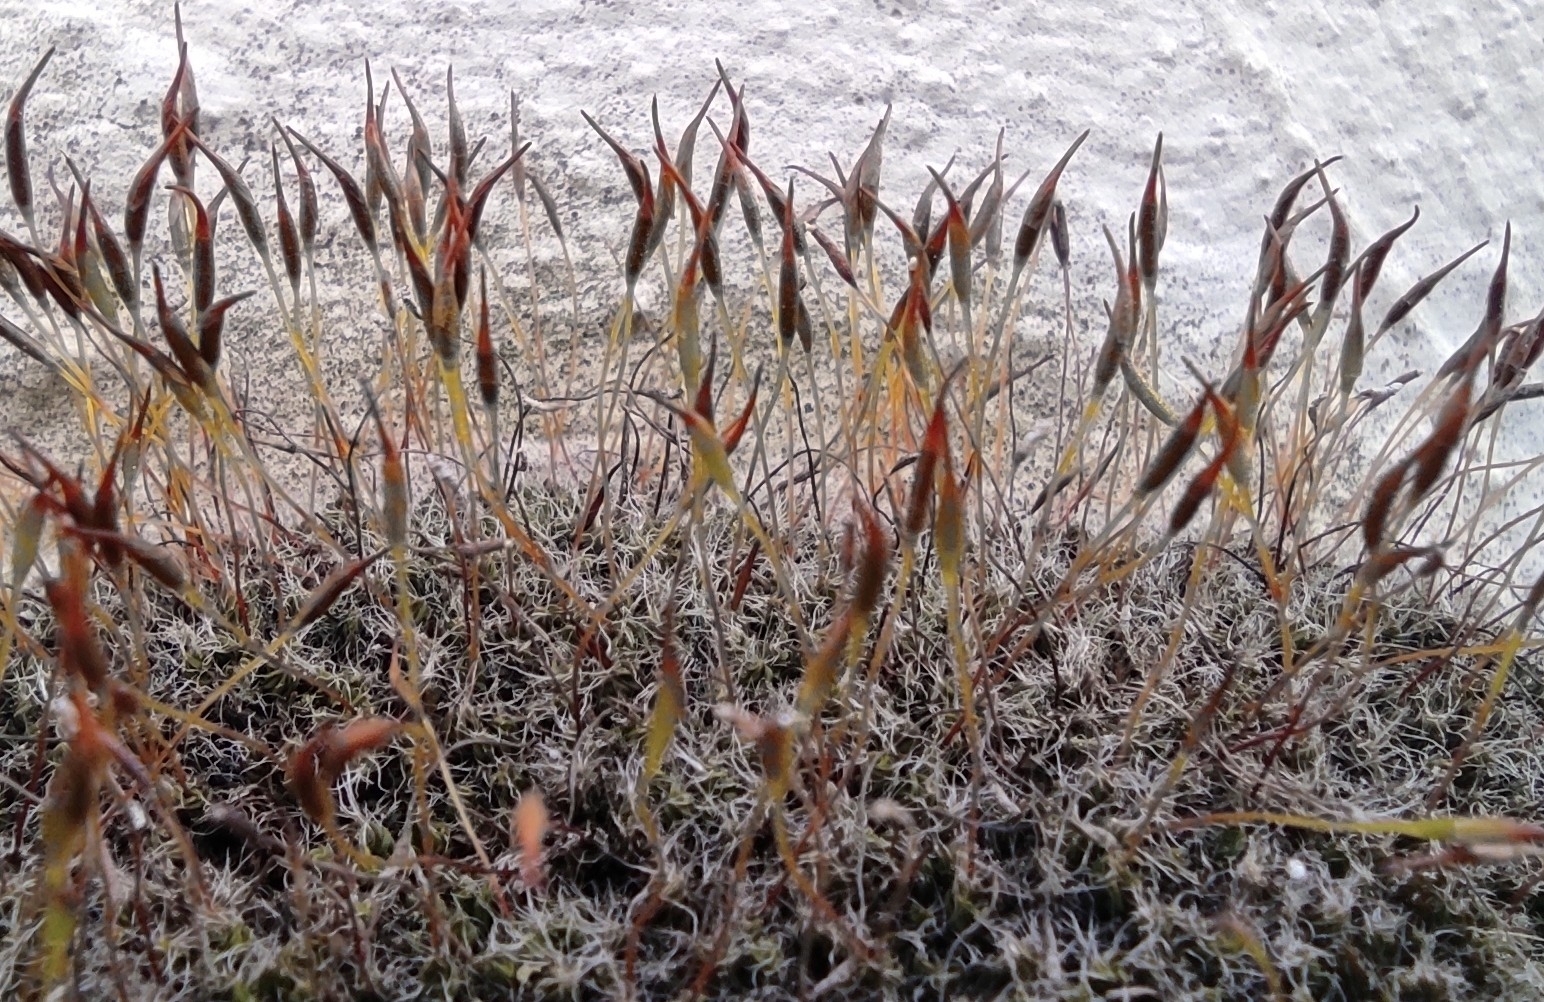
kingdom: Plantae
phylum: Bryophyta
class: Bryopsida
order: Pottiales
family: Pottiaceae
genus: Tortula
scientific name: Tortula muralis
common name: Wall screw-moss
